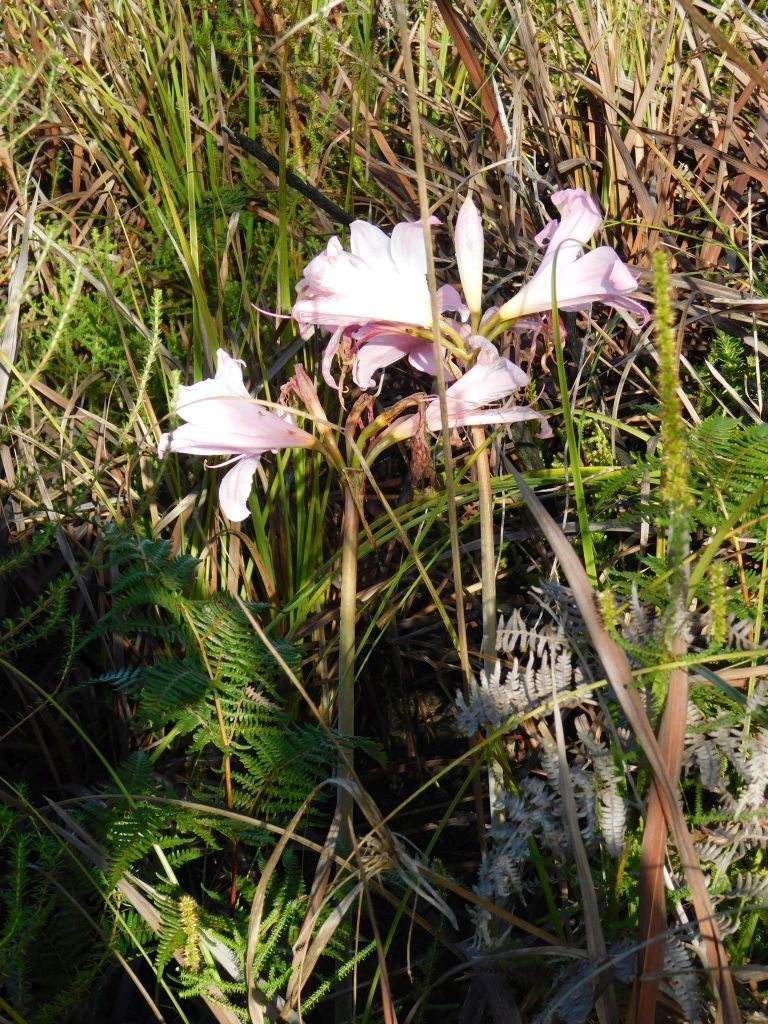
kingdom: Plantae
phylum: Tracheophyta
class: Liliopsida
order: Asparagales
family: Amaryllidaceae
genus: Amaryllis
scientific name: Amaryllis belladonna
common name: Jersey lily
